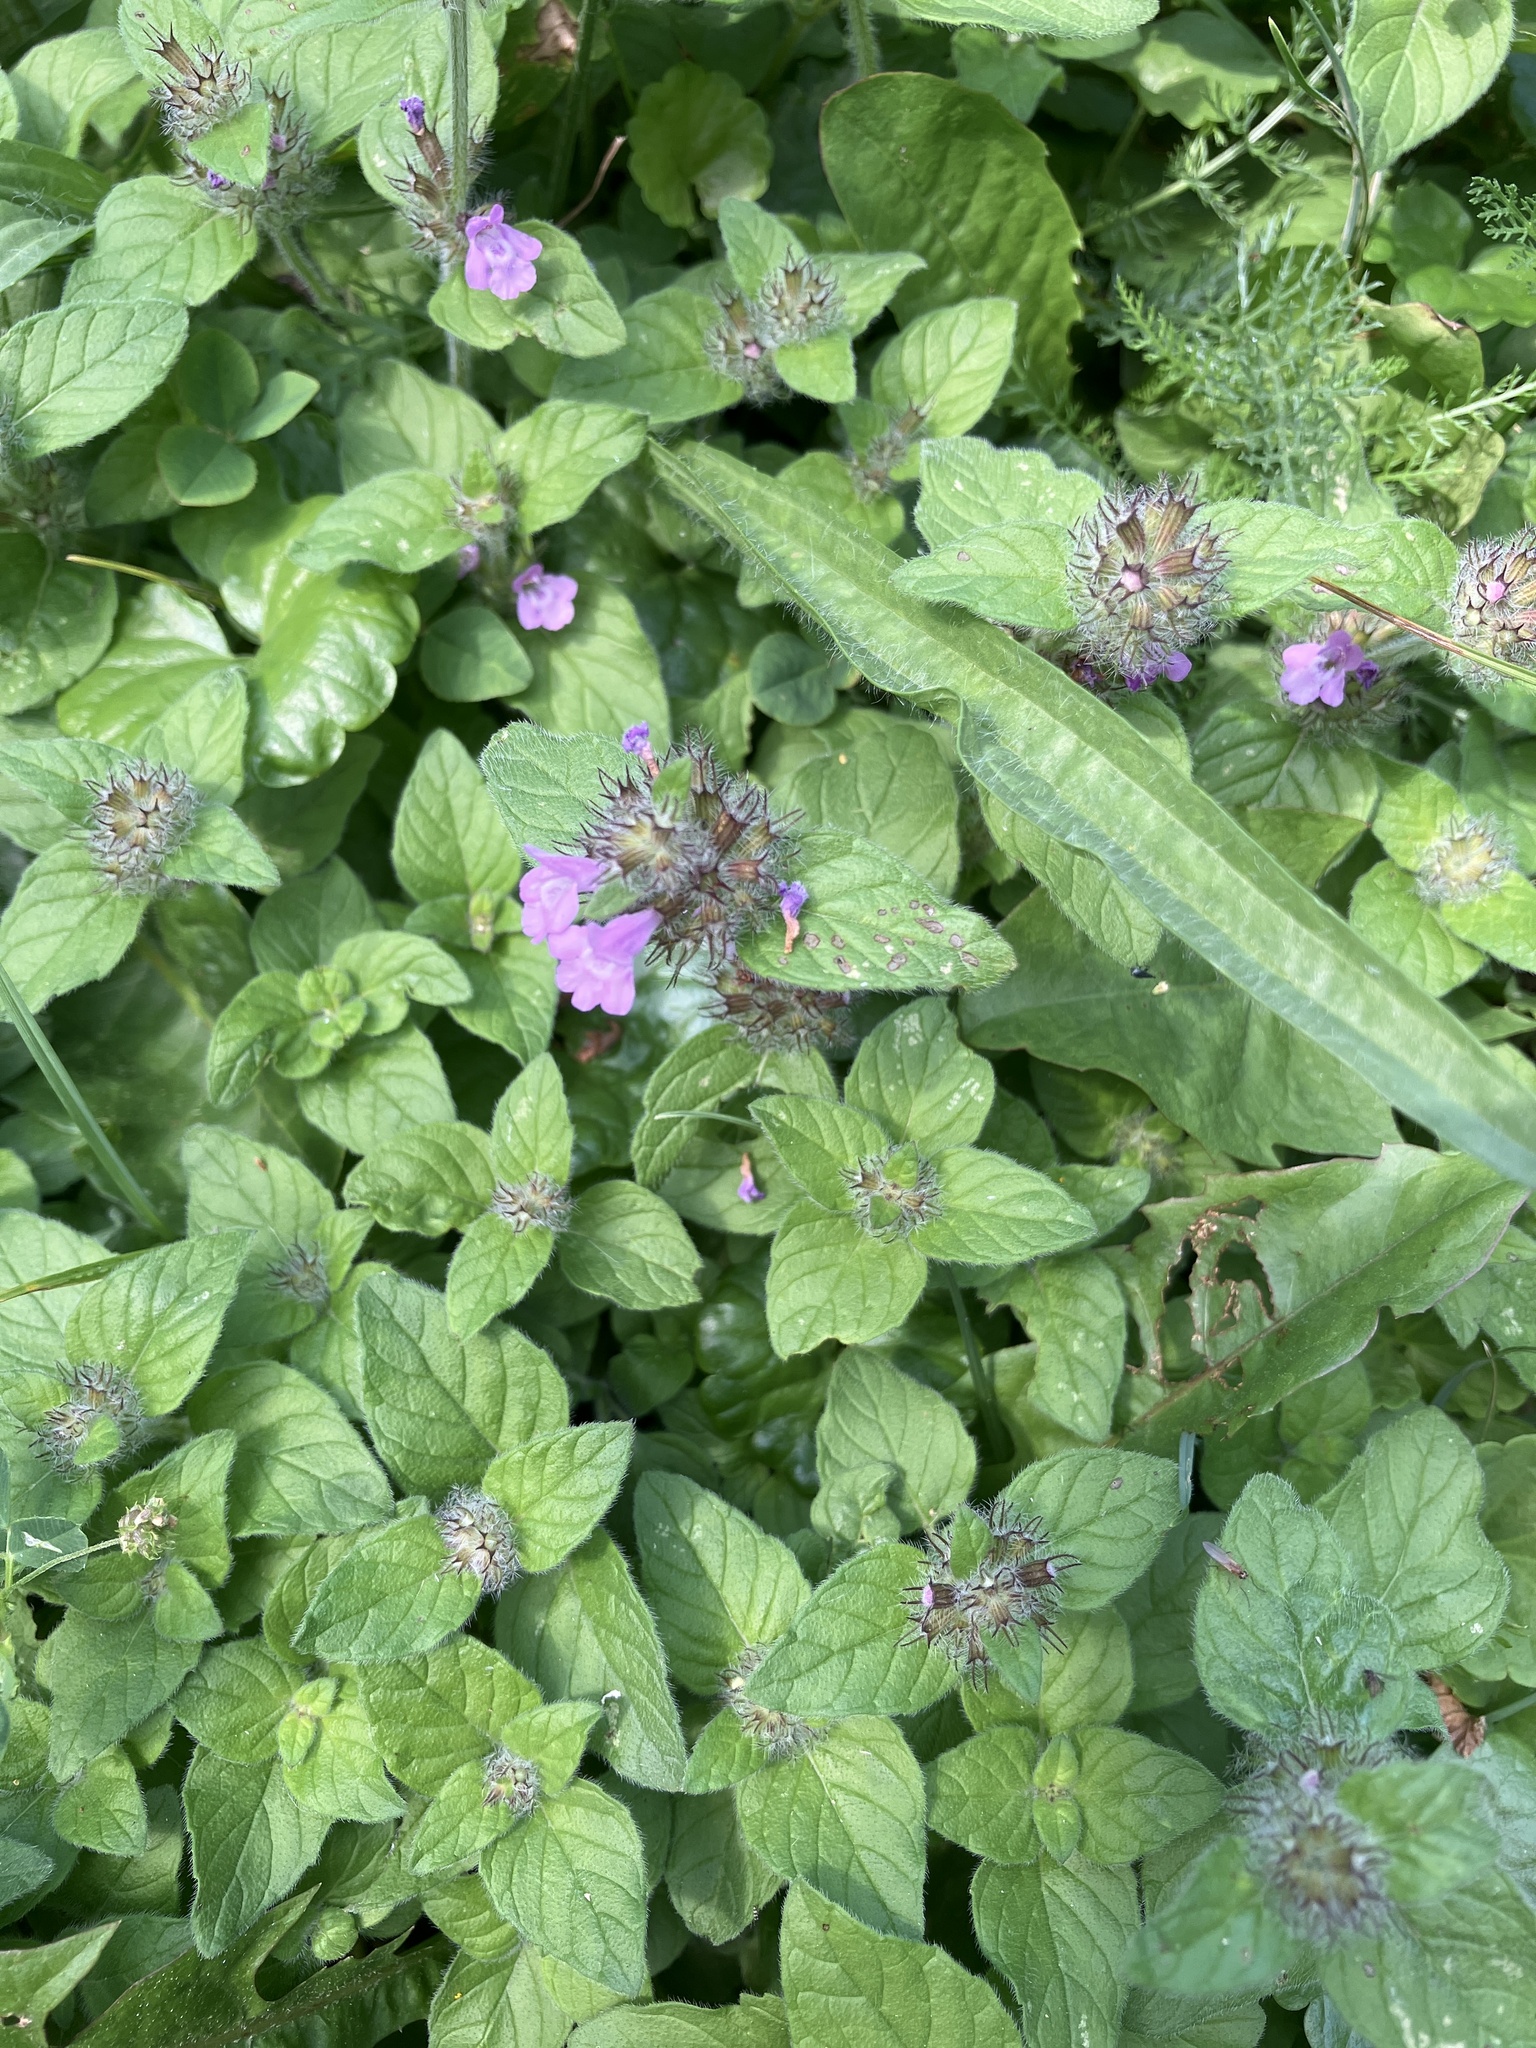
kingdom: Plantae
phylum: Tracheophyta
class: Magnoliopsida
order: Lamiales
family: Lamiaceae
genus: Clinopodium
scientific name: Clinopodium vulgare
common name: Wild basil
